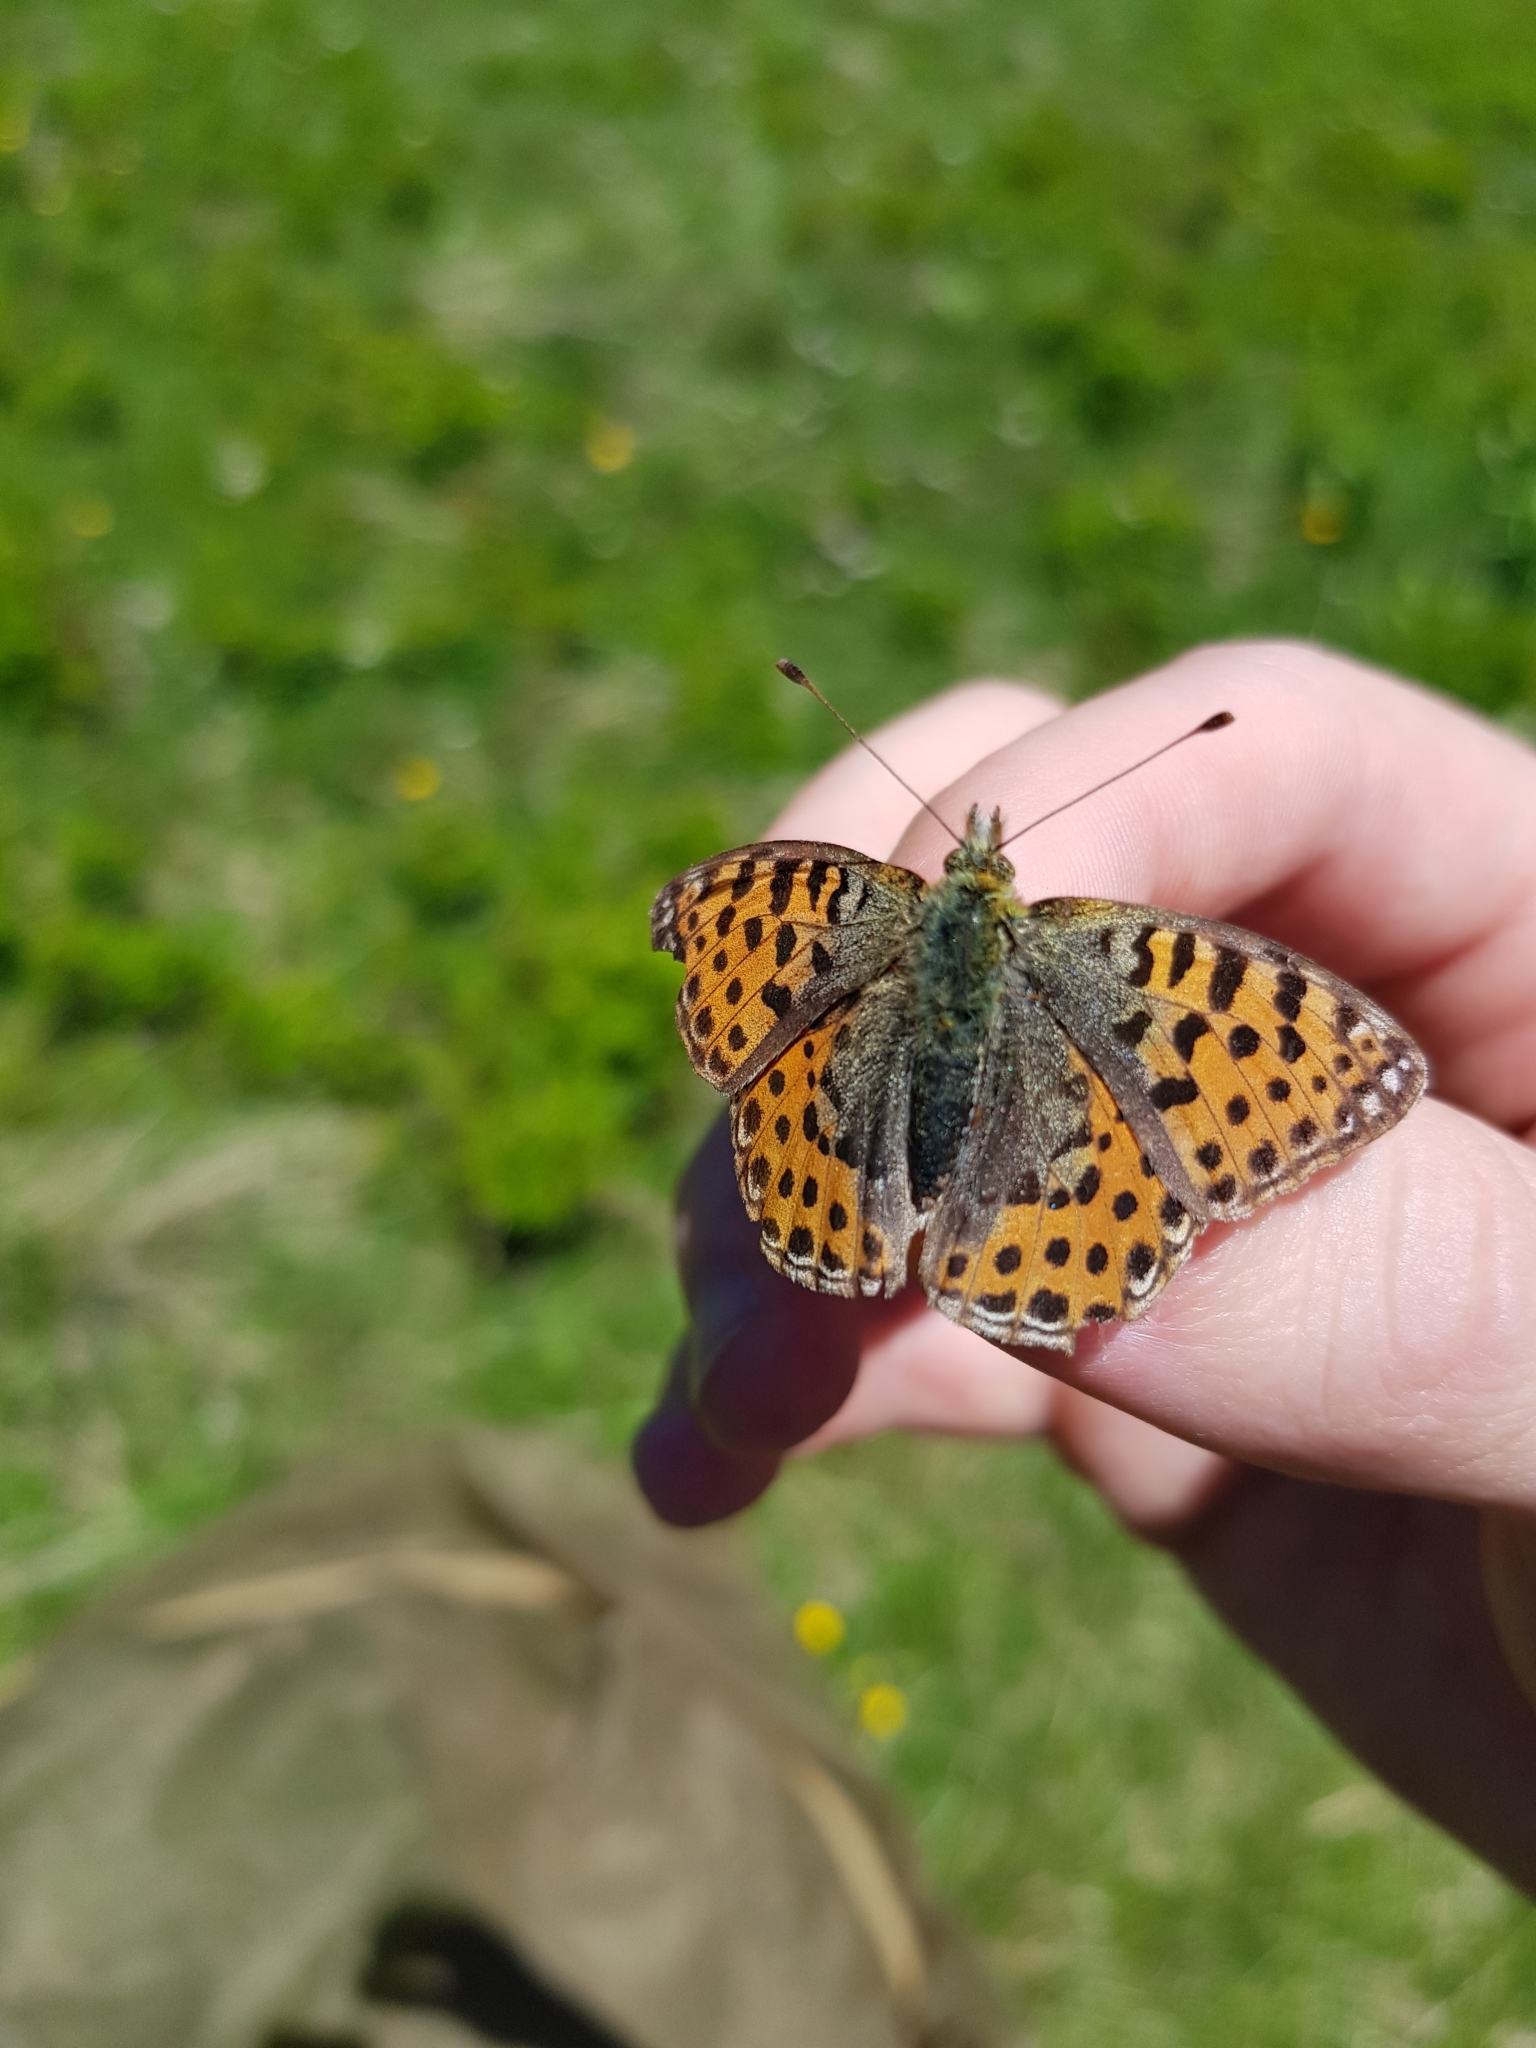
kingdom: Animalia
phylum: Arthropoda
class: Insecta
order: Lepidoptera
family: Nymphalidae
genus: Issoria
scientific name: Issoria lathonia
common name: Queen of spain fritillary
